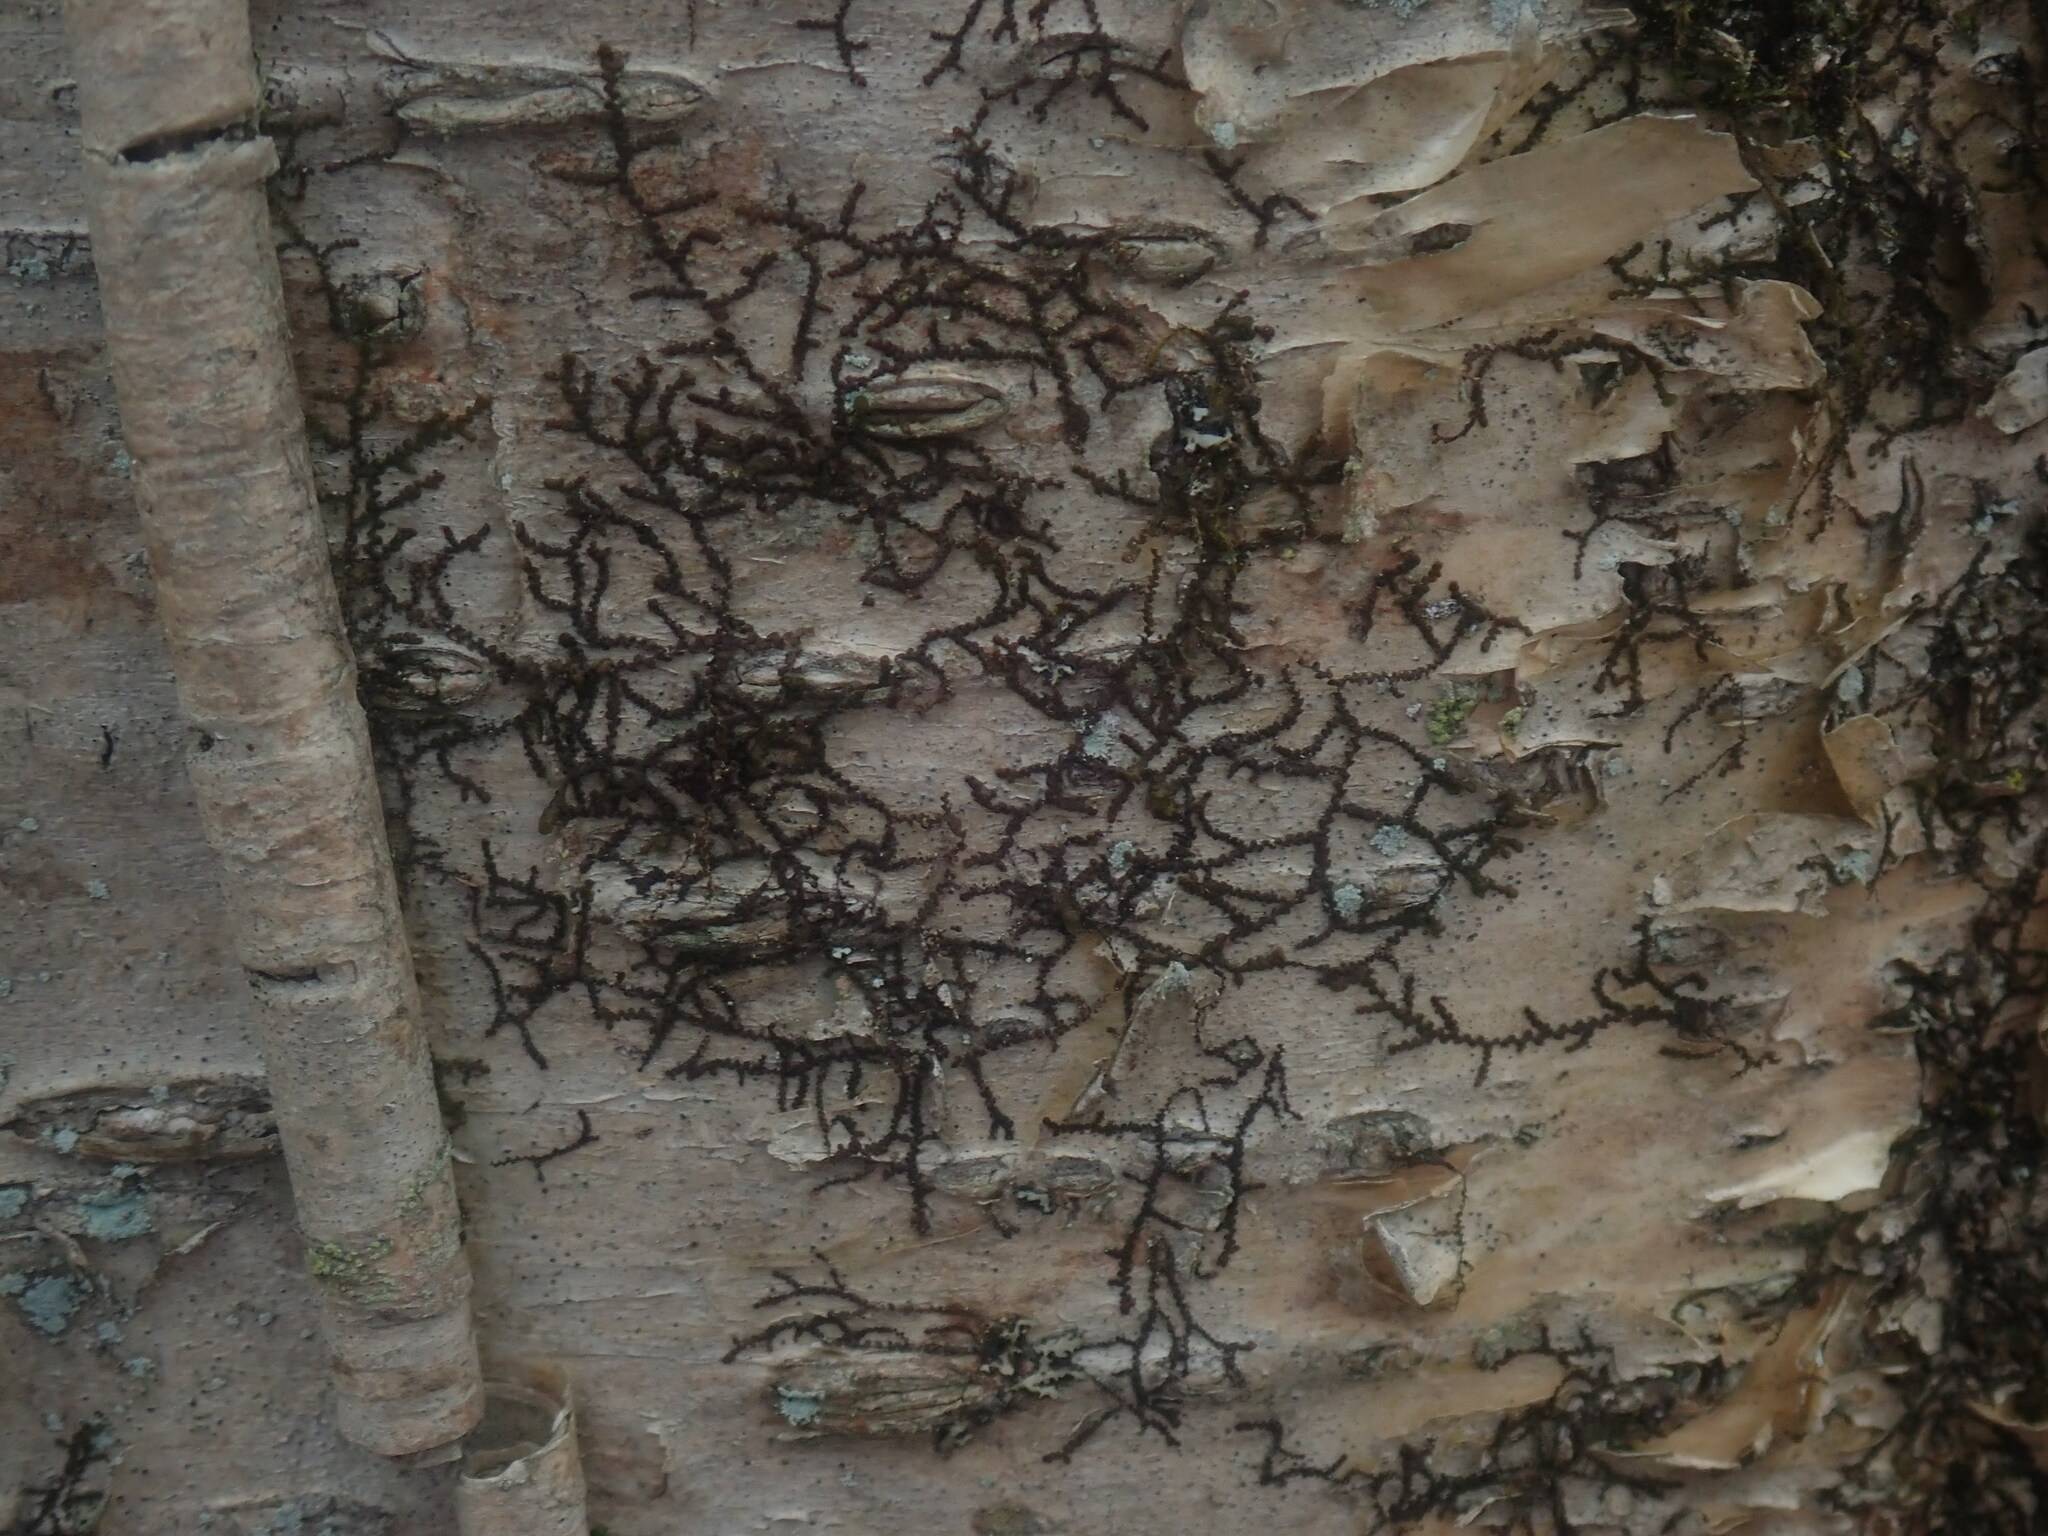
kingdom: Plantae
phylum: Marchantiophyta
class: Jungermanniopsida
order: Porellales
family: Frullaniaceae
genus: Frullania
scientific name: Frullania
